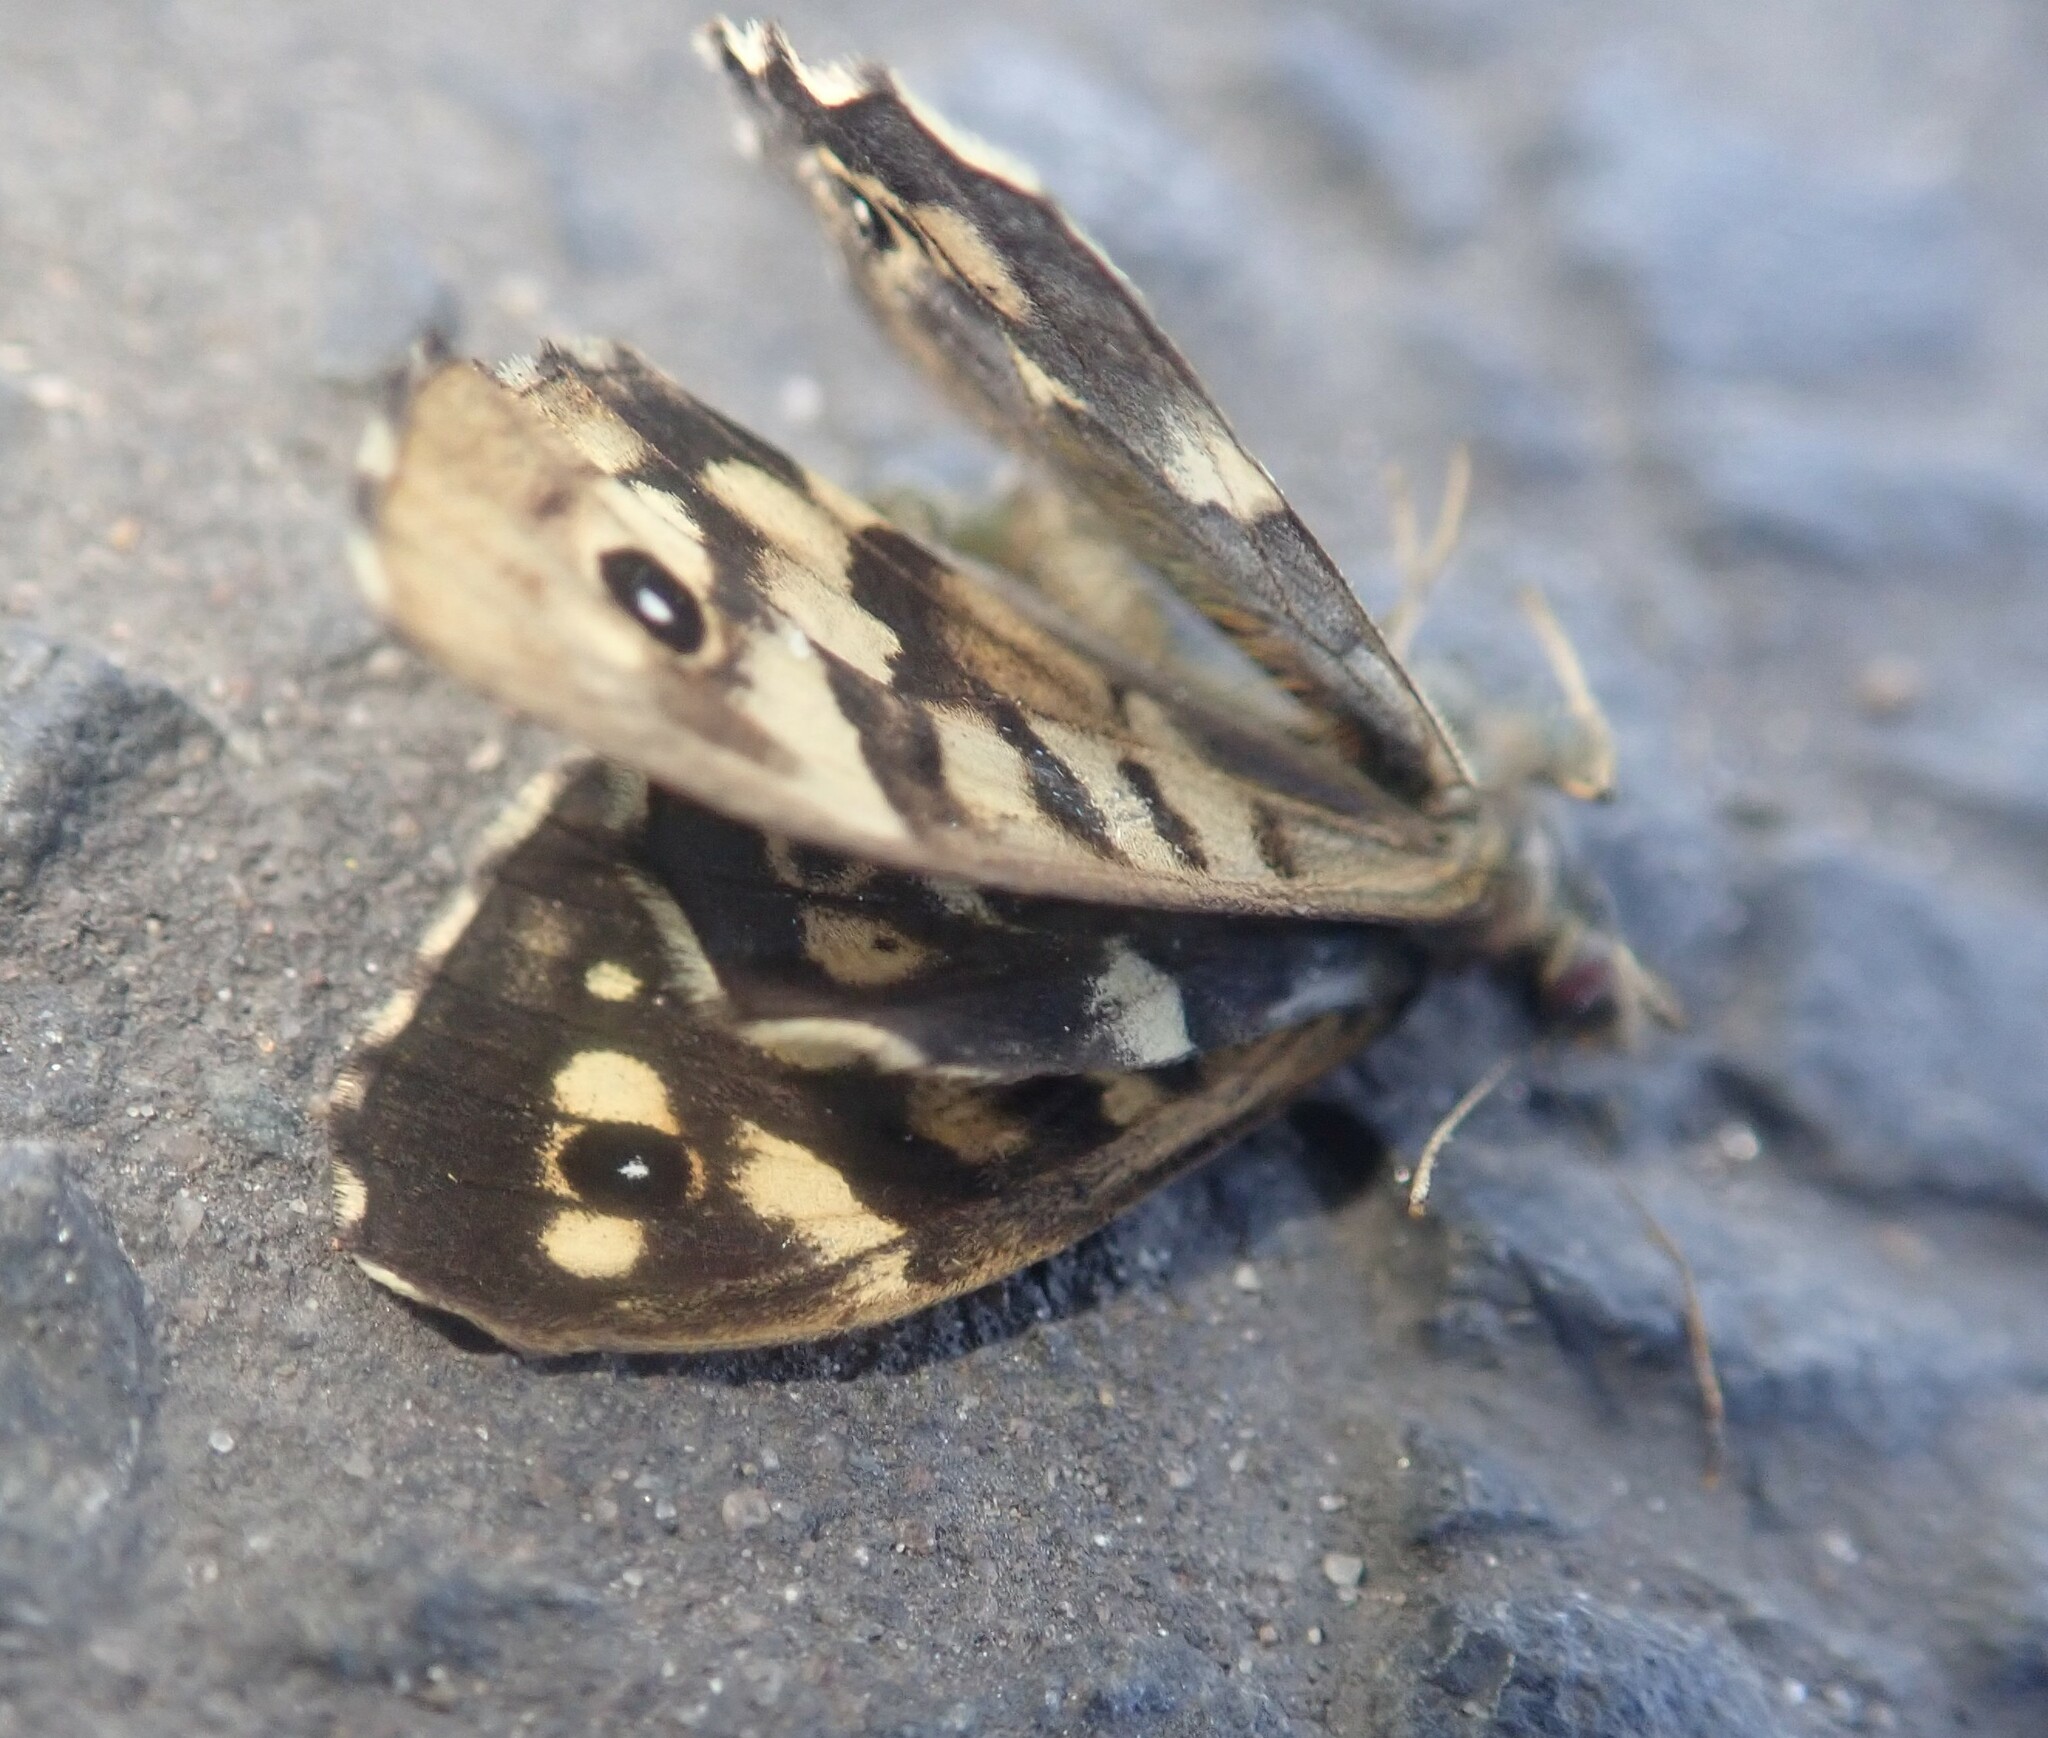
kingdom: Animalia
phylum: Arthropoda
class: Insecta
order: Lepidoptera
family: Nymphalidae
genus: Pararge
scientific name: Pararge aegeria
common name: Speckled wood
